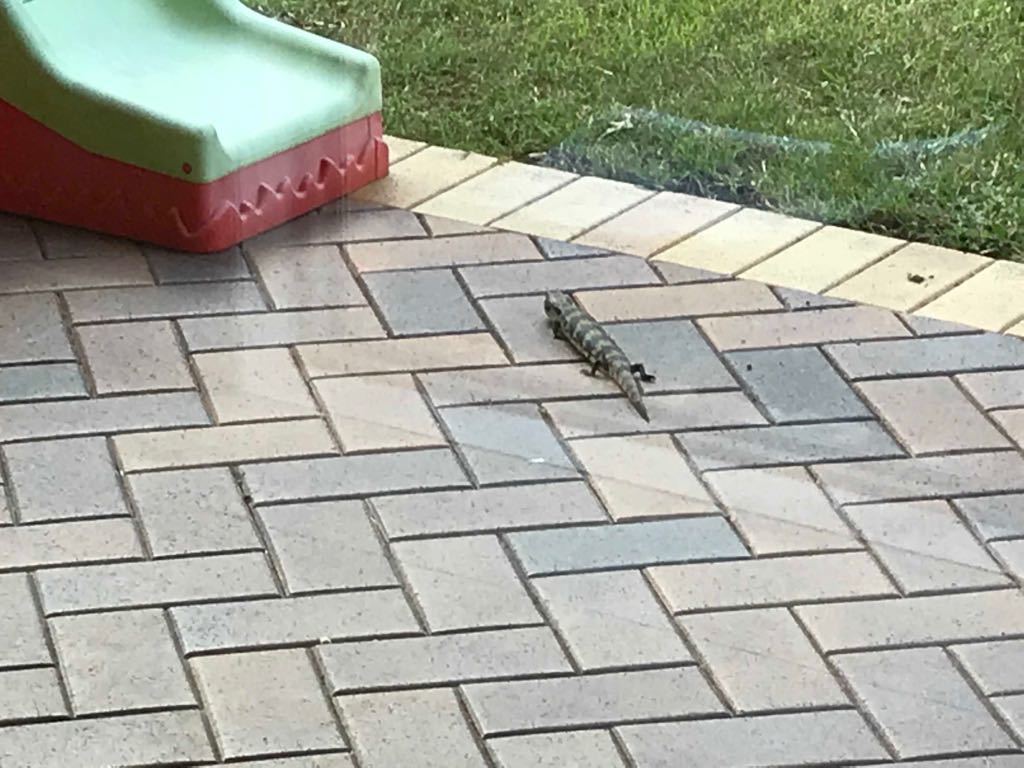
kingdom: Animalia
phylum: Chordata
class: Squamata
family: Scincidae
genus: Tiliqua
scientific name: Tiliqua scincoides
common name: Common bluetongue
